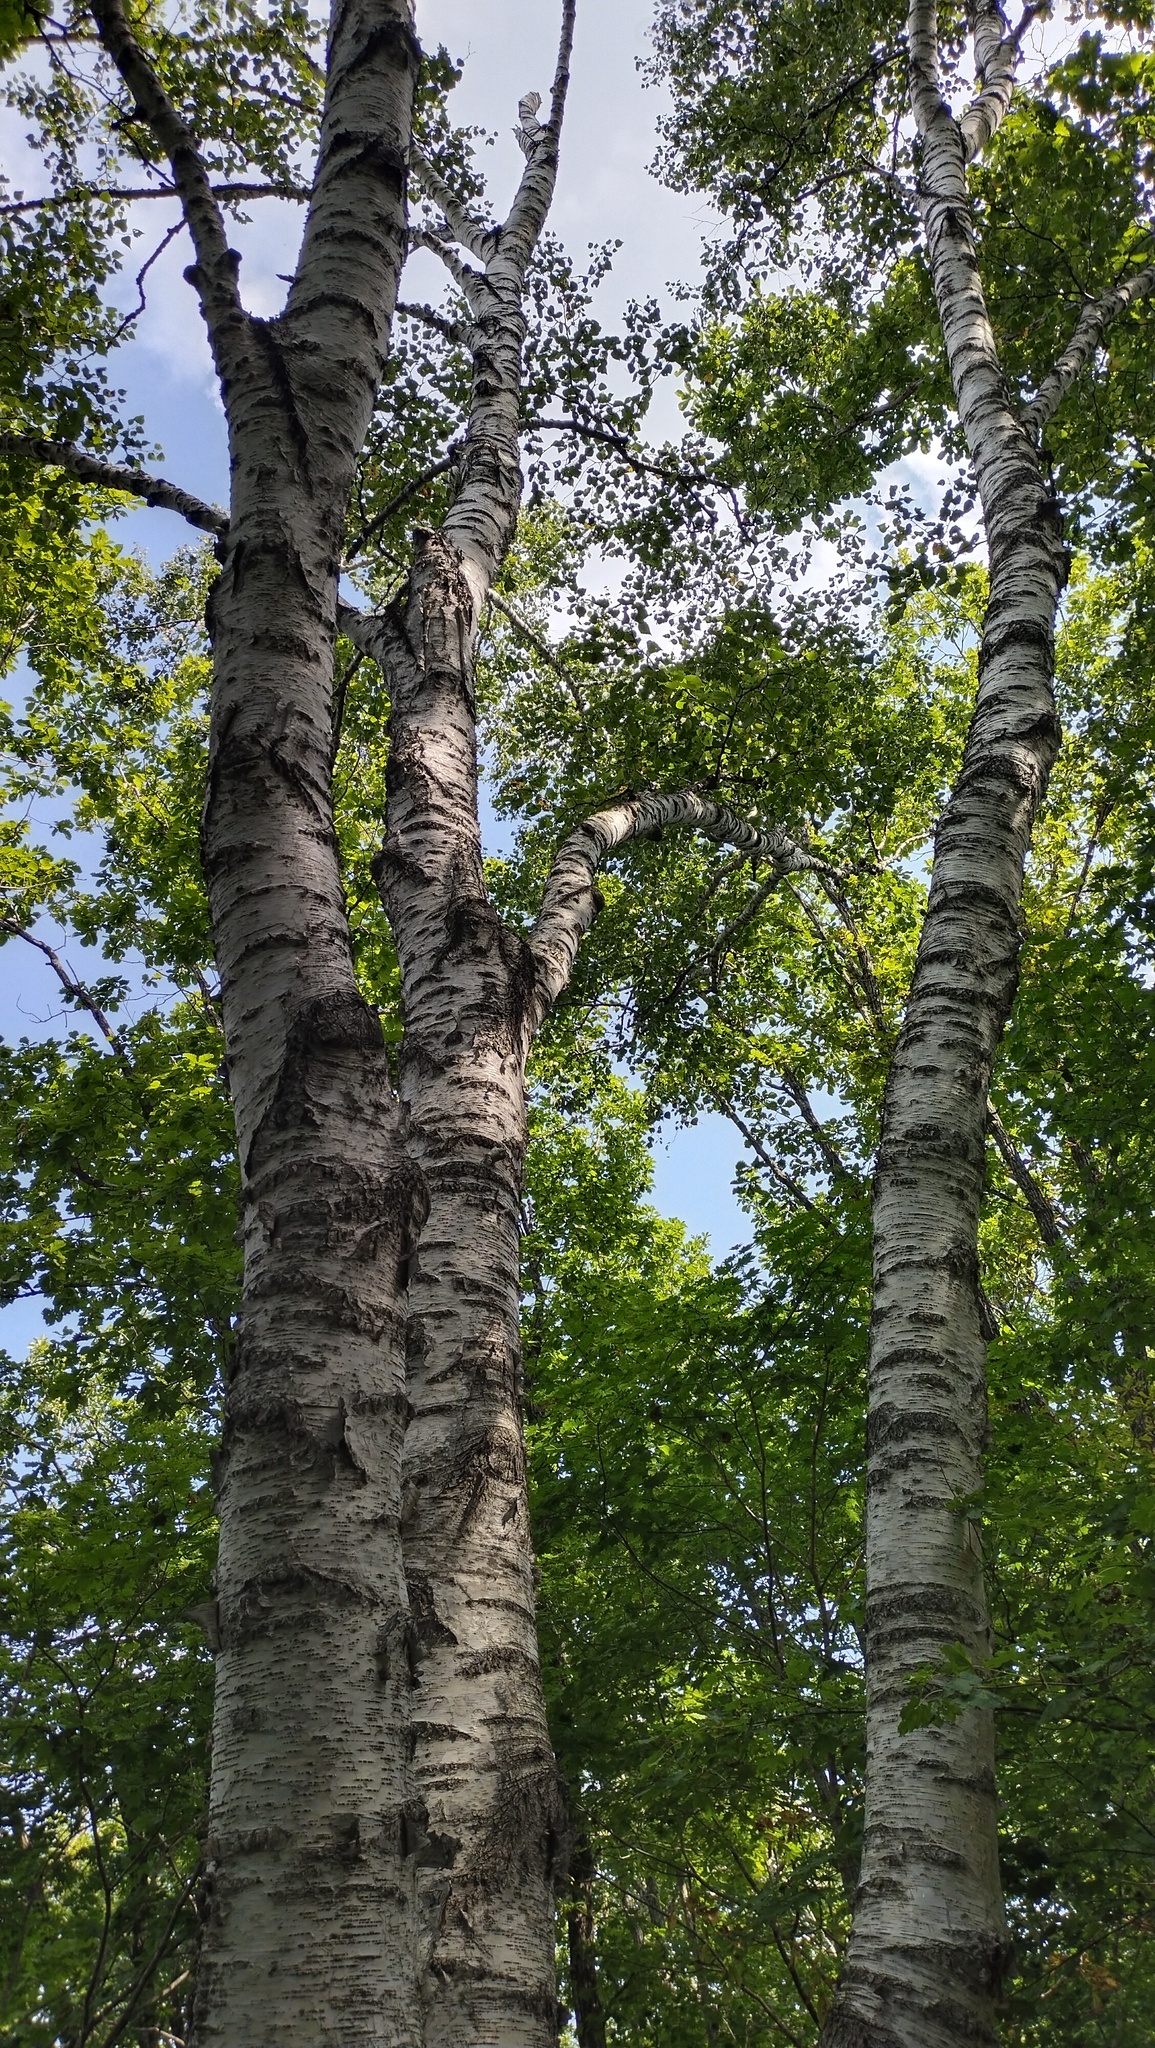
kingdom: Plantae
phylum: Tracheophyta
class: Magnoliopsida
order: Fagales
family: Betulaceae
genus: Betula
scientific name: Betula pendula
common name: Silver birch
